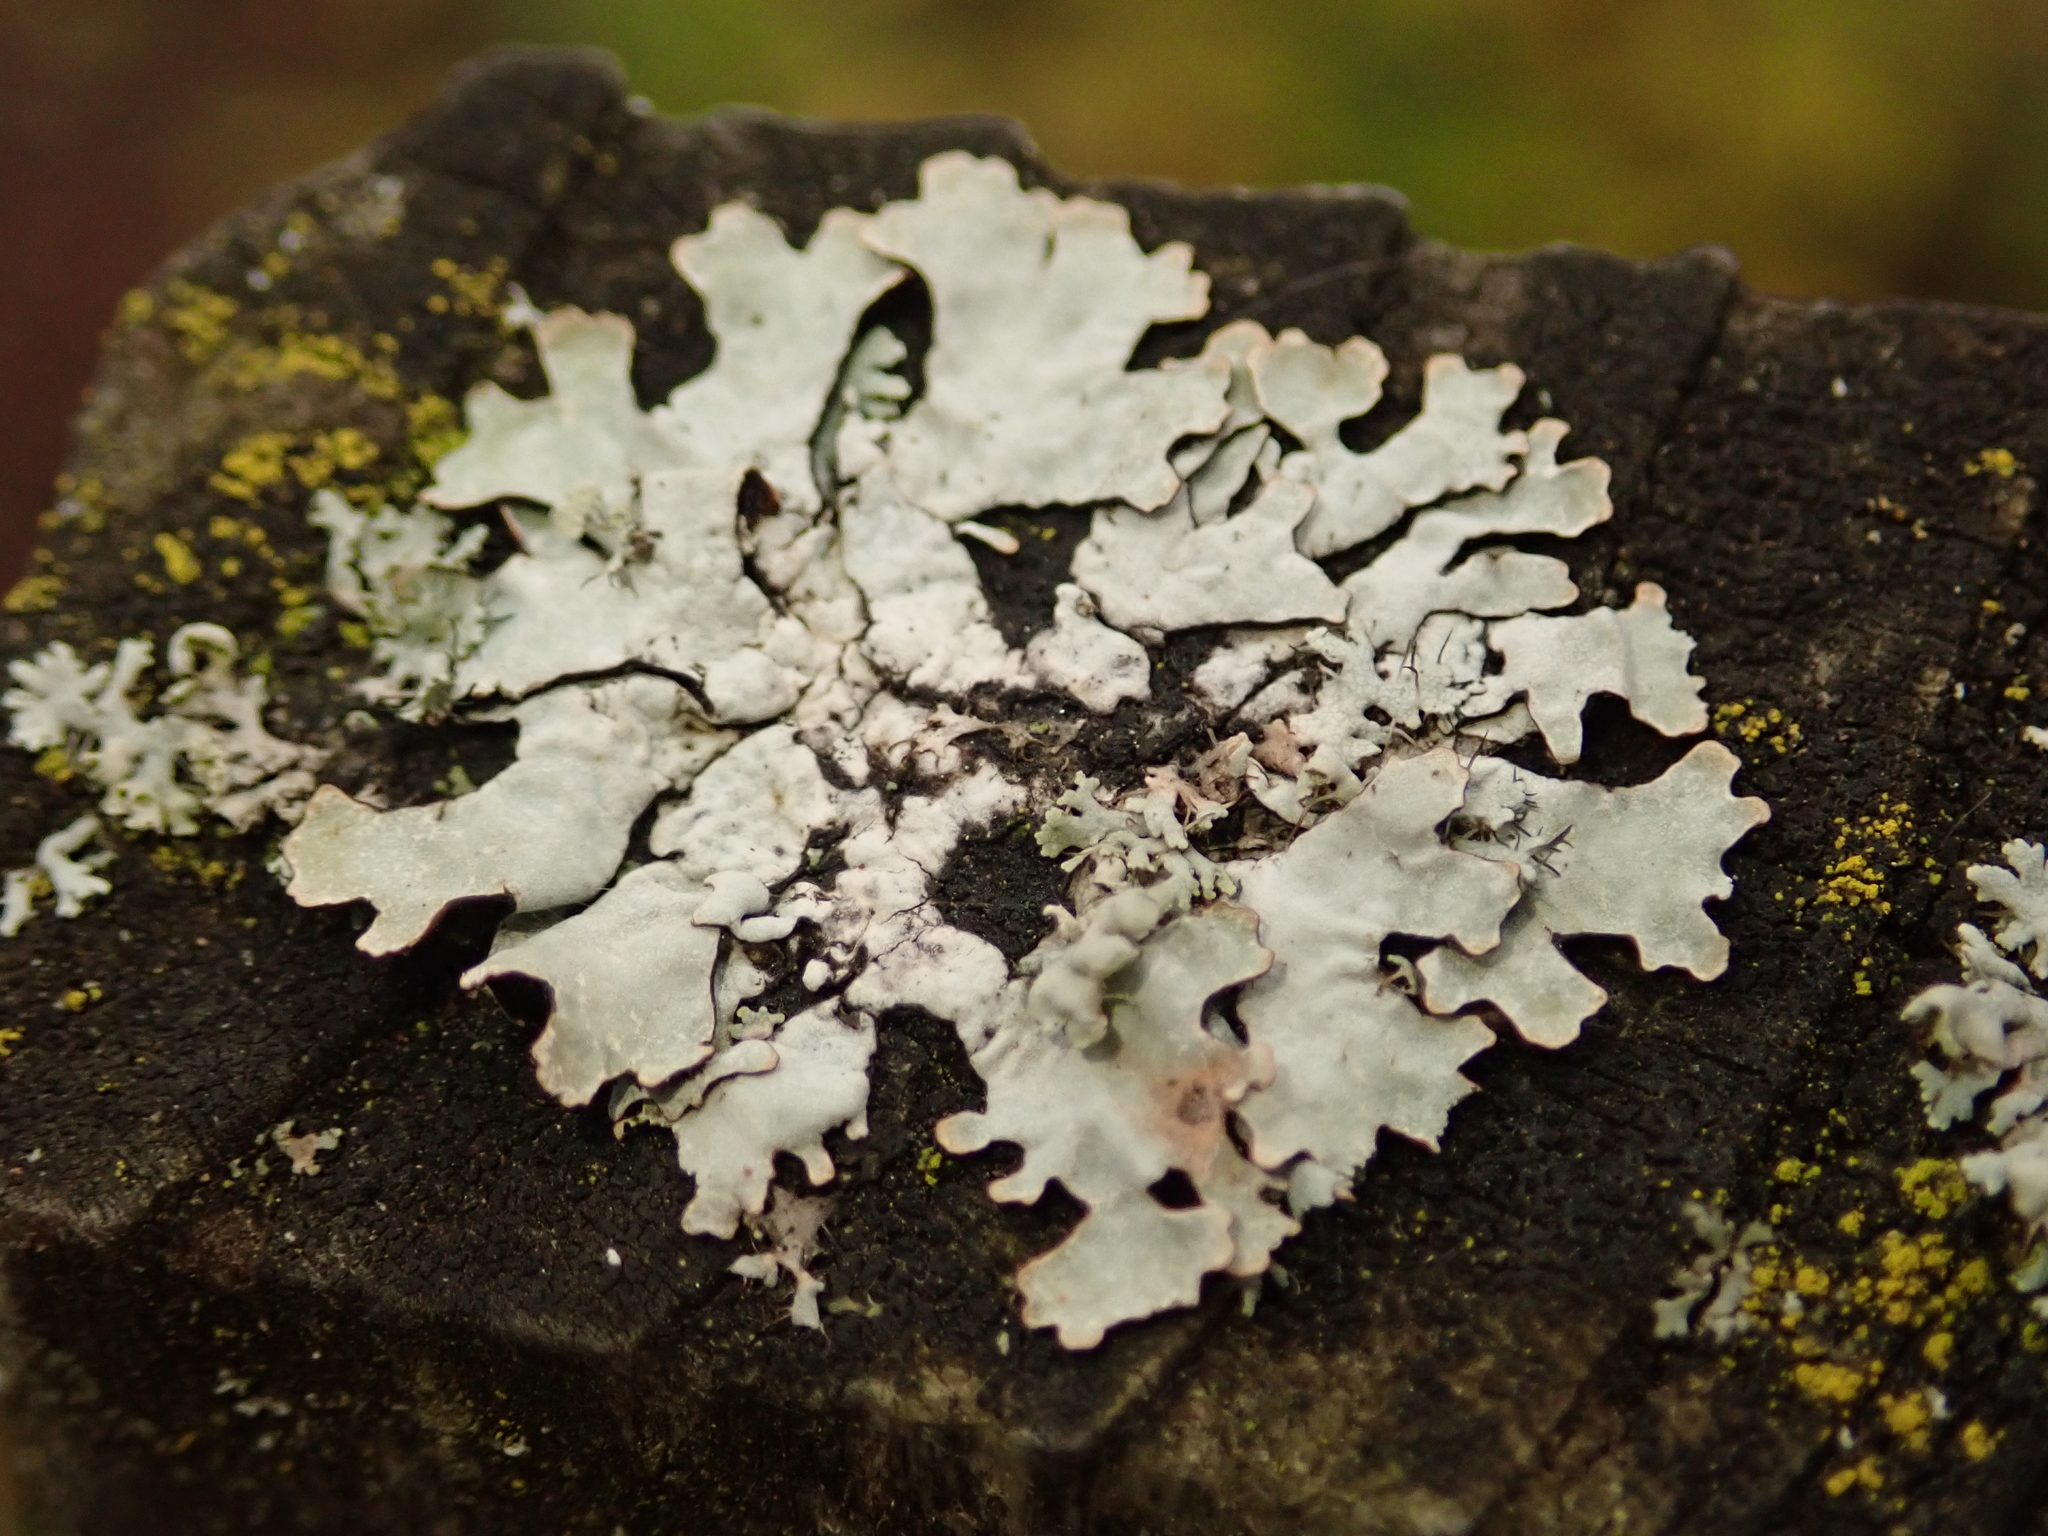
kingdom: Fungi
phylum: Ascomycota
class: Lecanoromycetes
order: Lecanorales
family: Parmeliaceae
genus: Parmelia
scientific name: Parmelia sulcata
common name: Netted shield lichen
